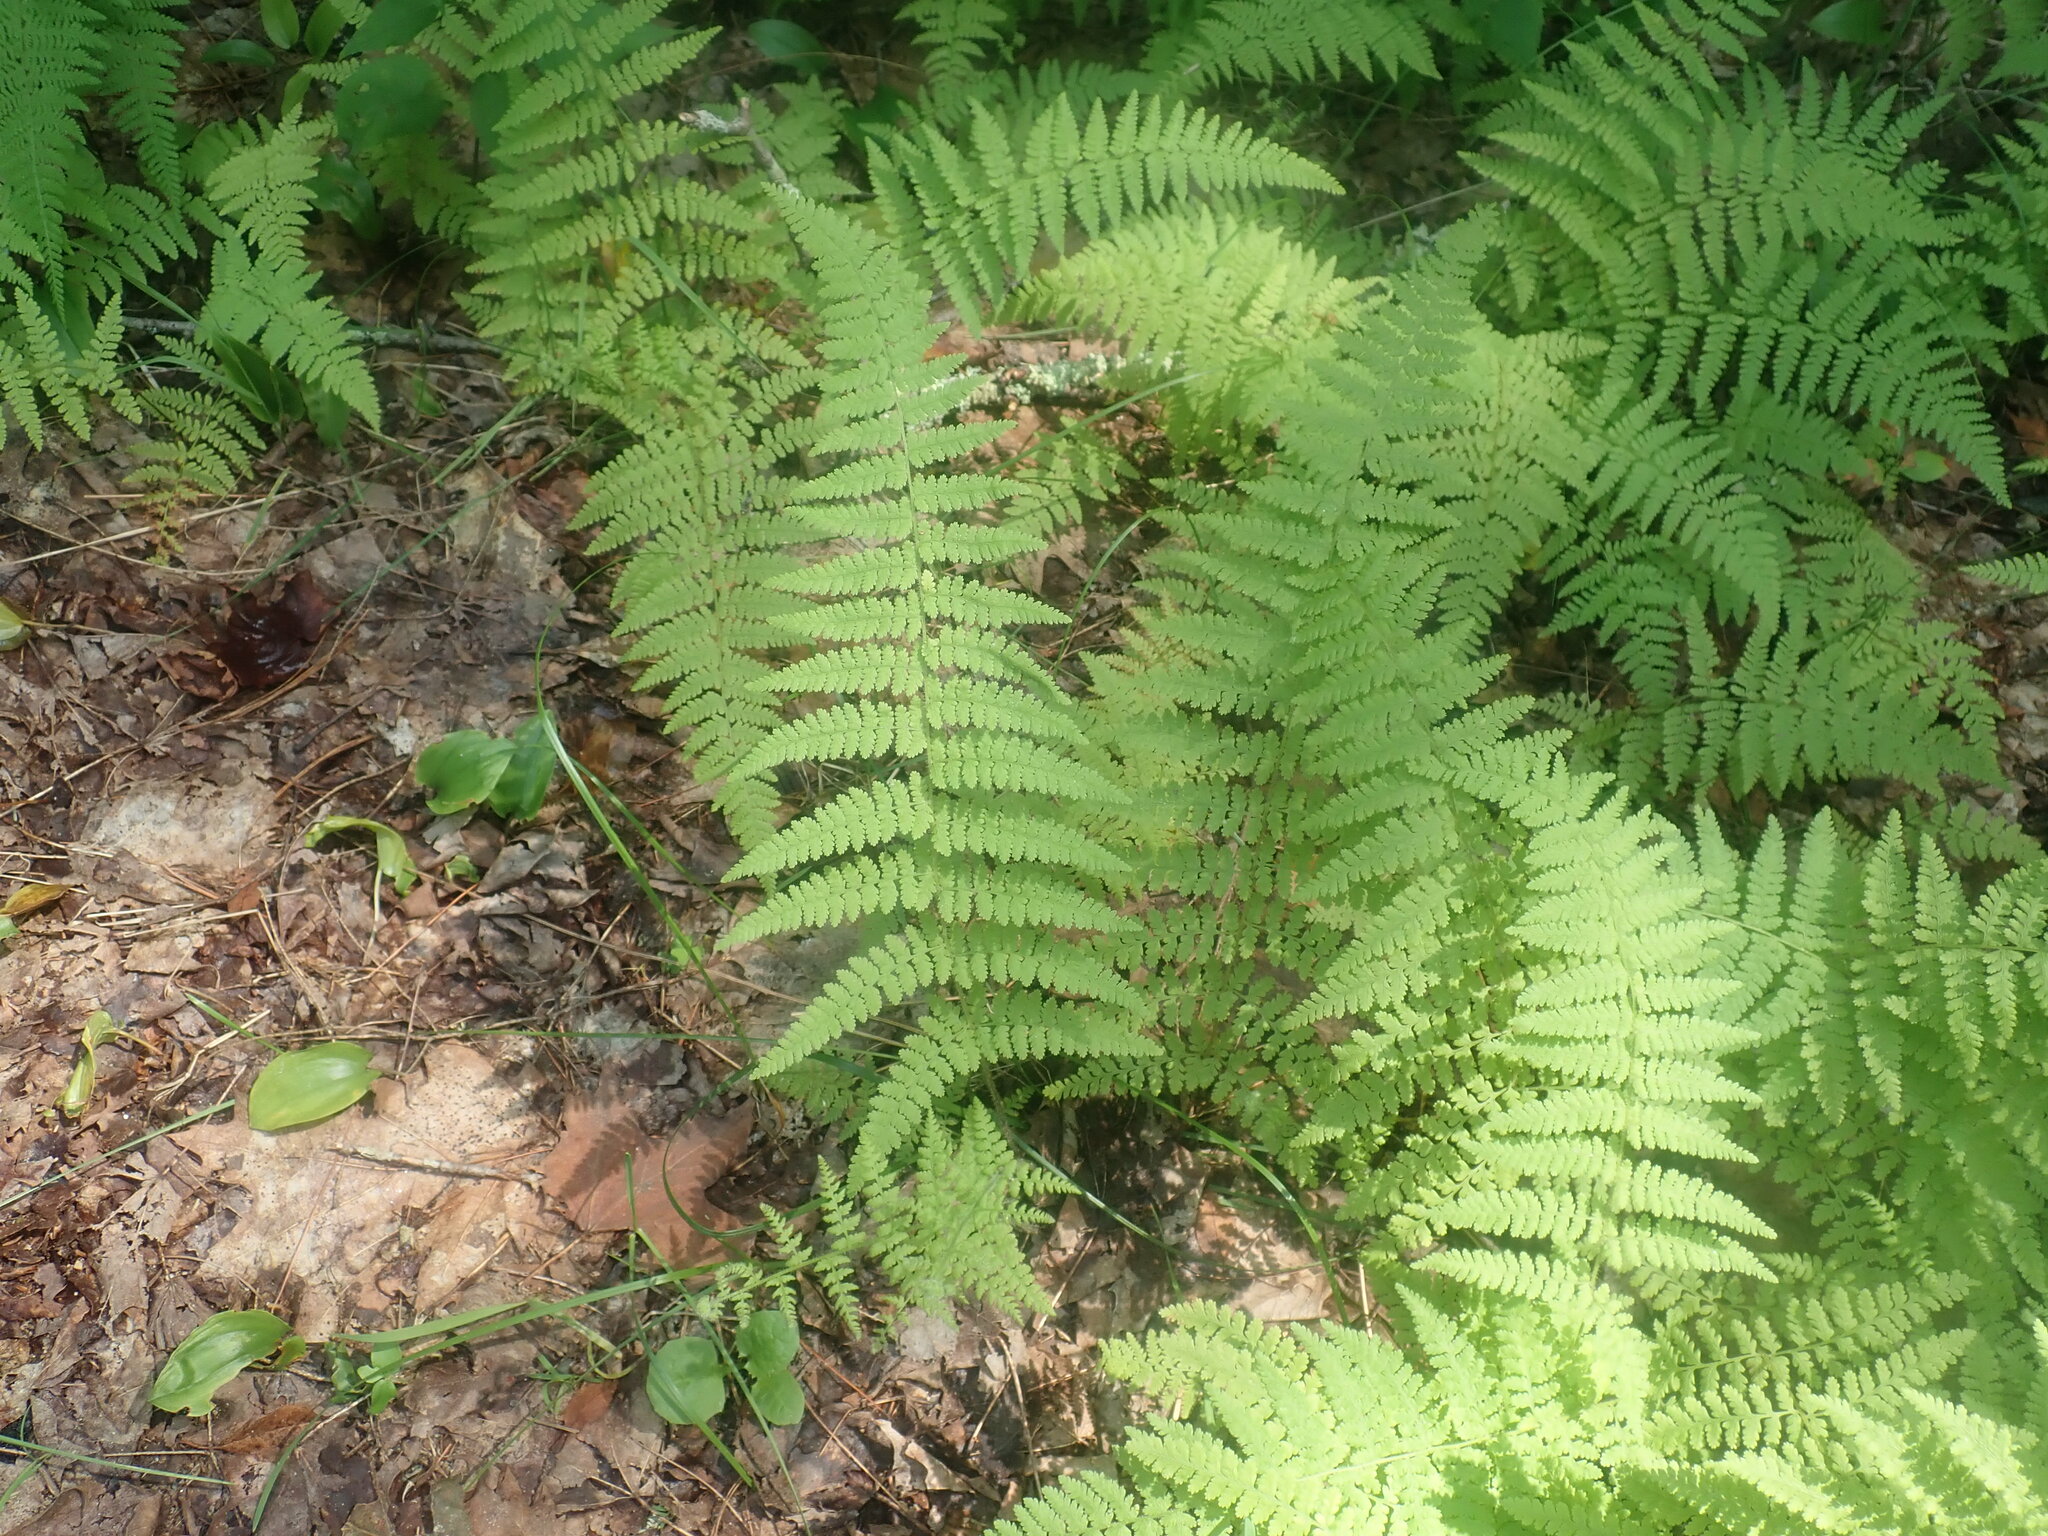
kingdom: Plantae
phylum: Tracheophyta
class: Polypodiopsida
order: Polypodiales
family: Dennstaedtiaceae
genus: Sitobolium
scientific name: Sitobolium punctilobum
